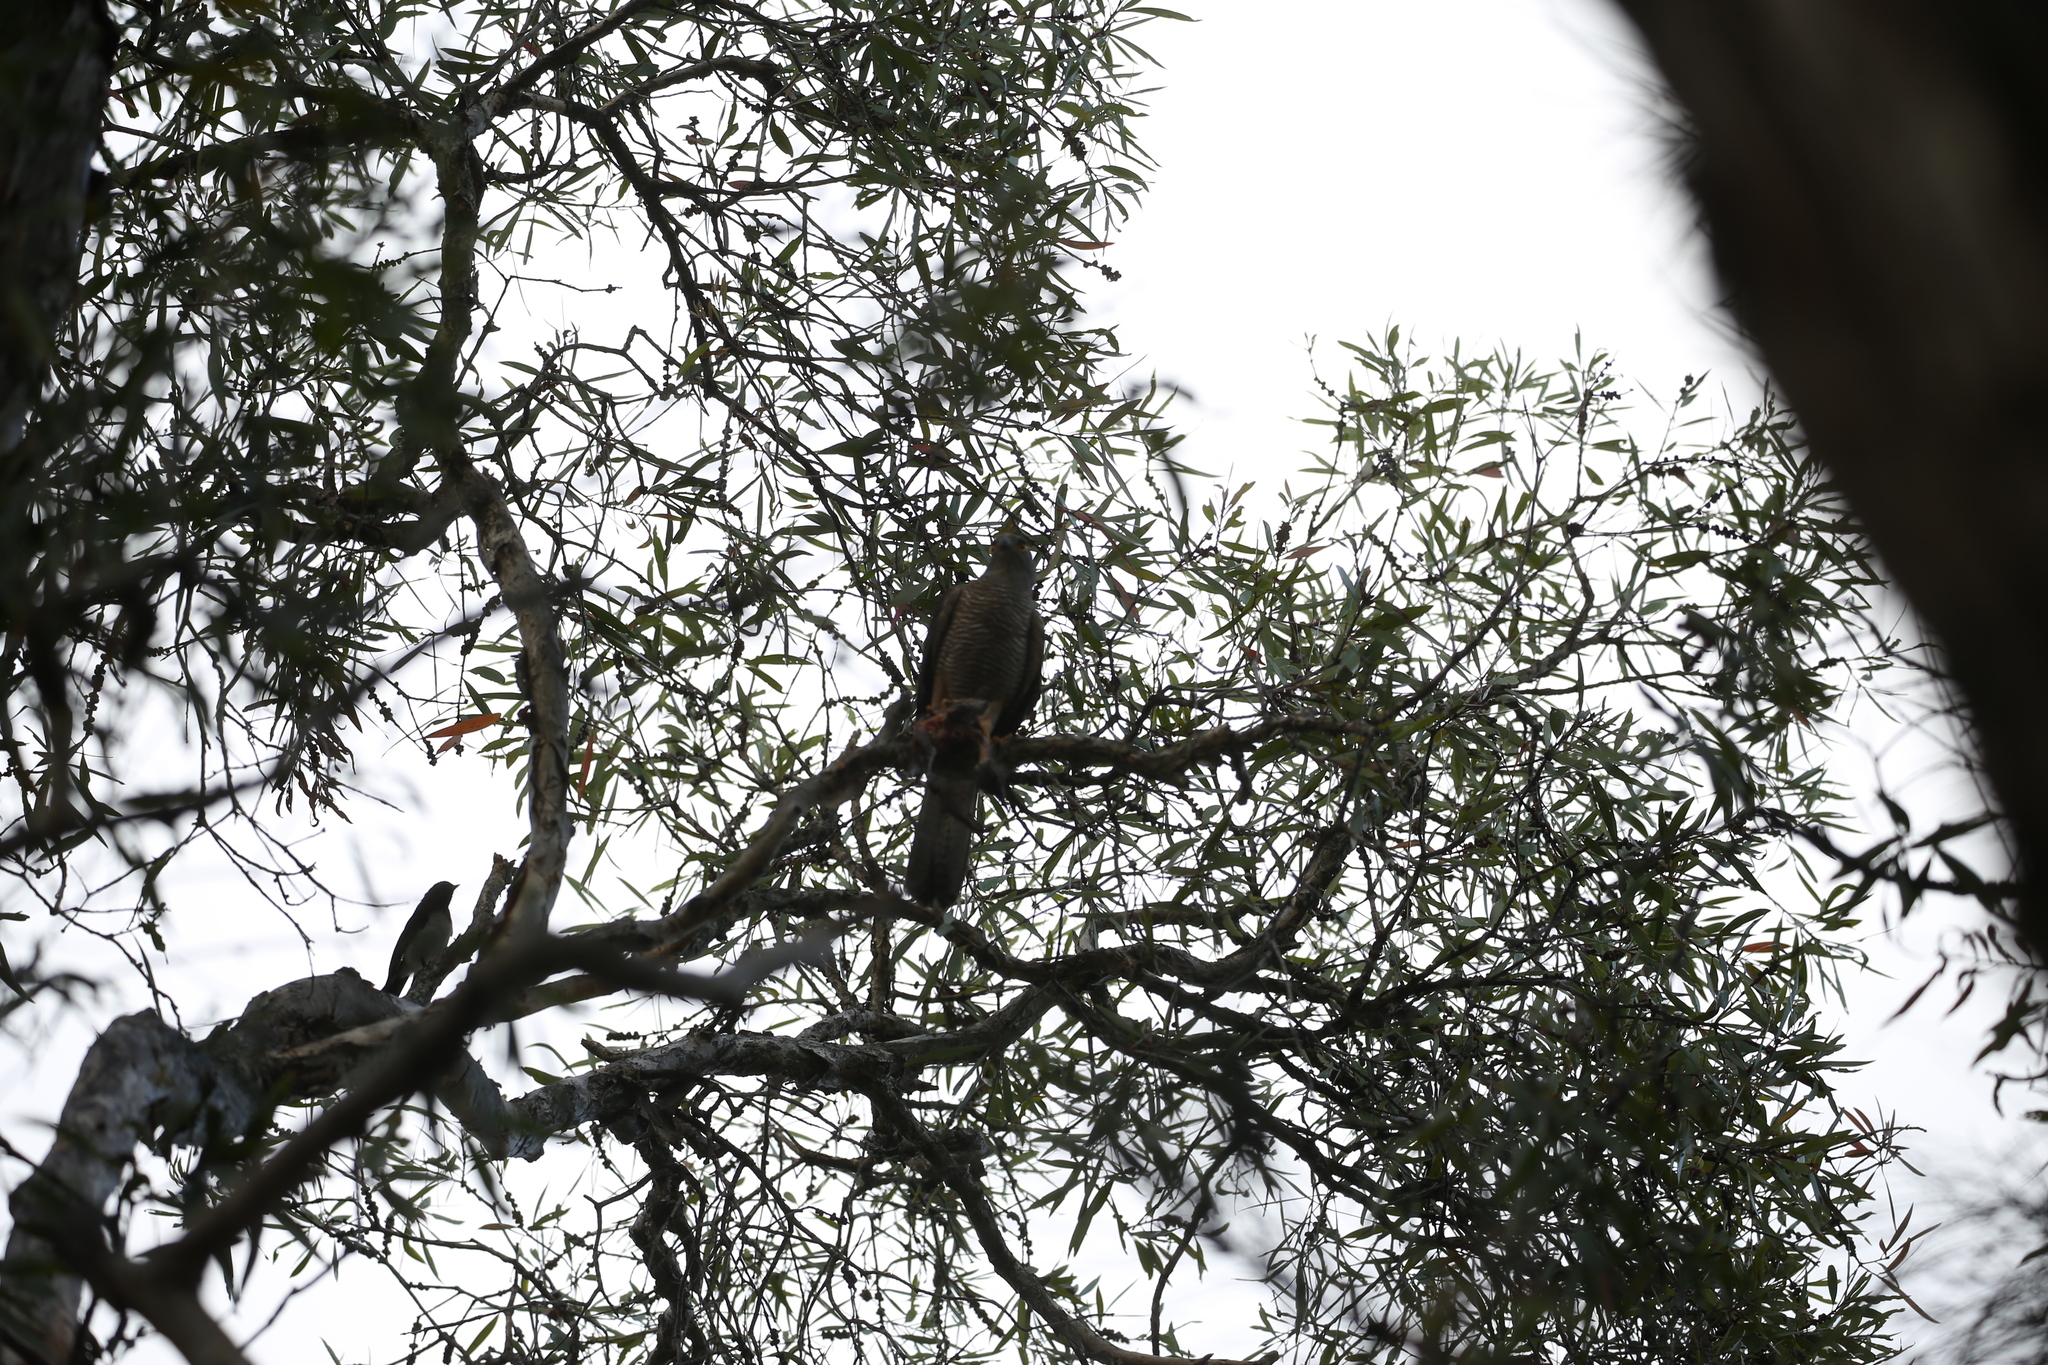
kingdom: Animalia
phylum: Chordata
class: Aves
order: Accipitriformes
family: Accipitridae
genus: Accipiter
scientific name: Accipiter fasciatus
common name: Brown goshawk
